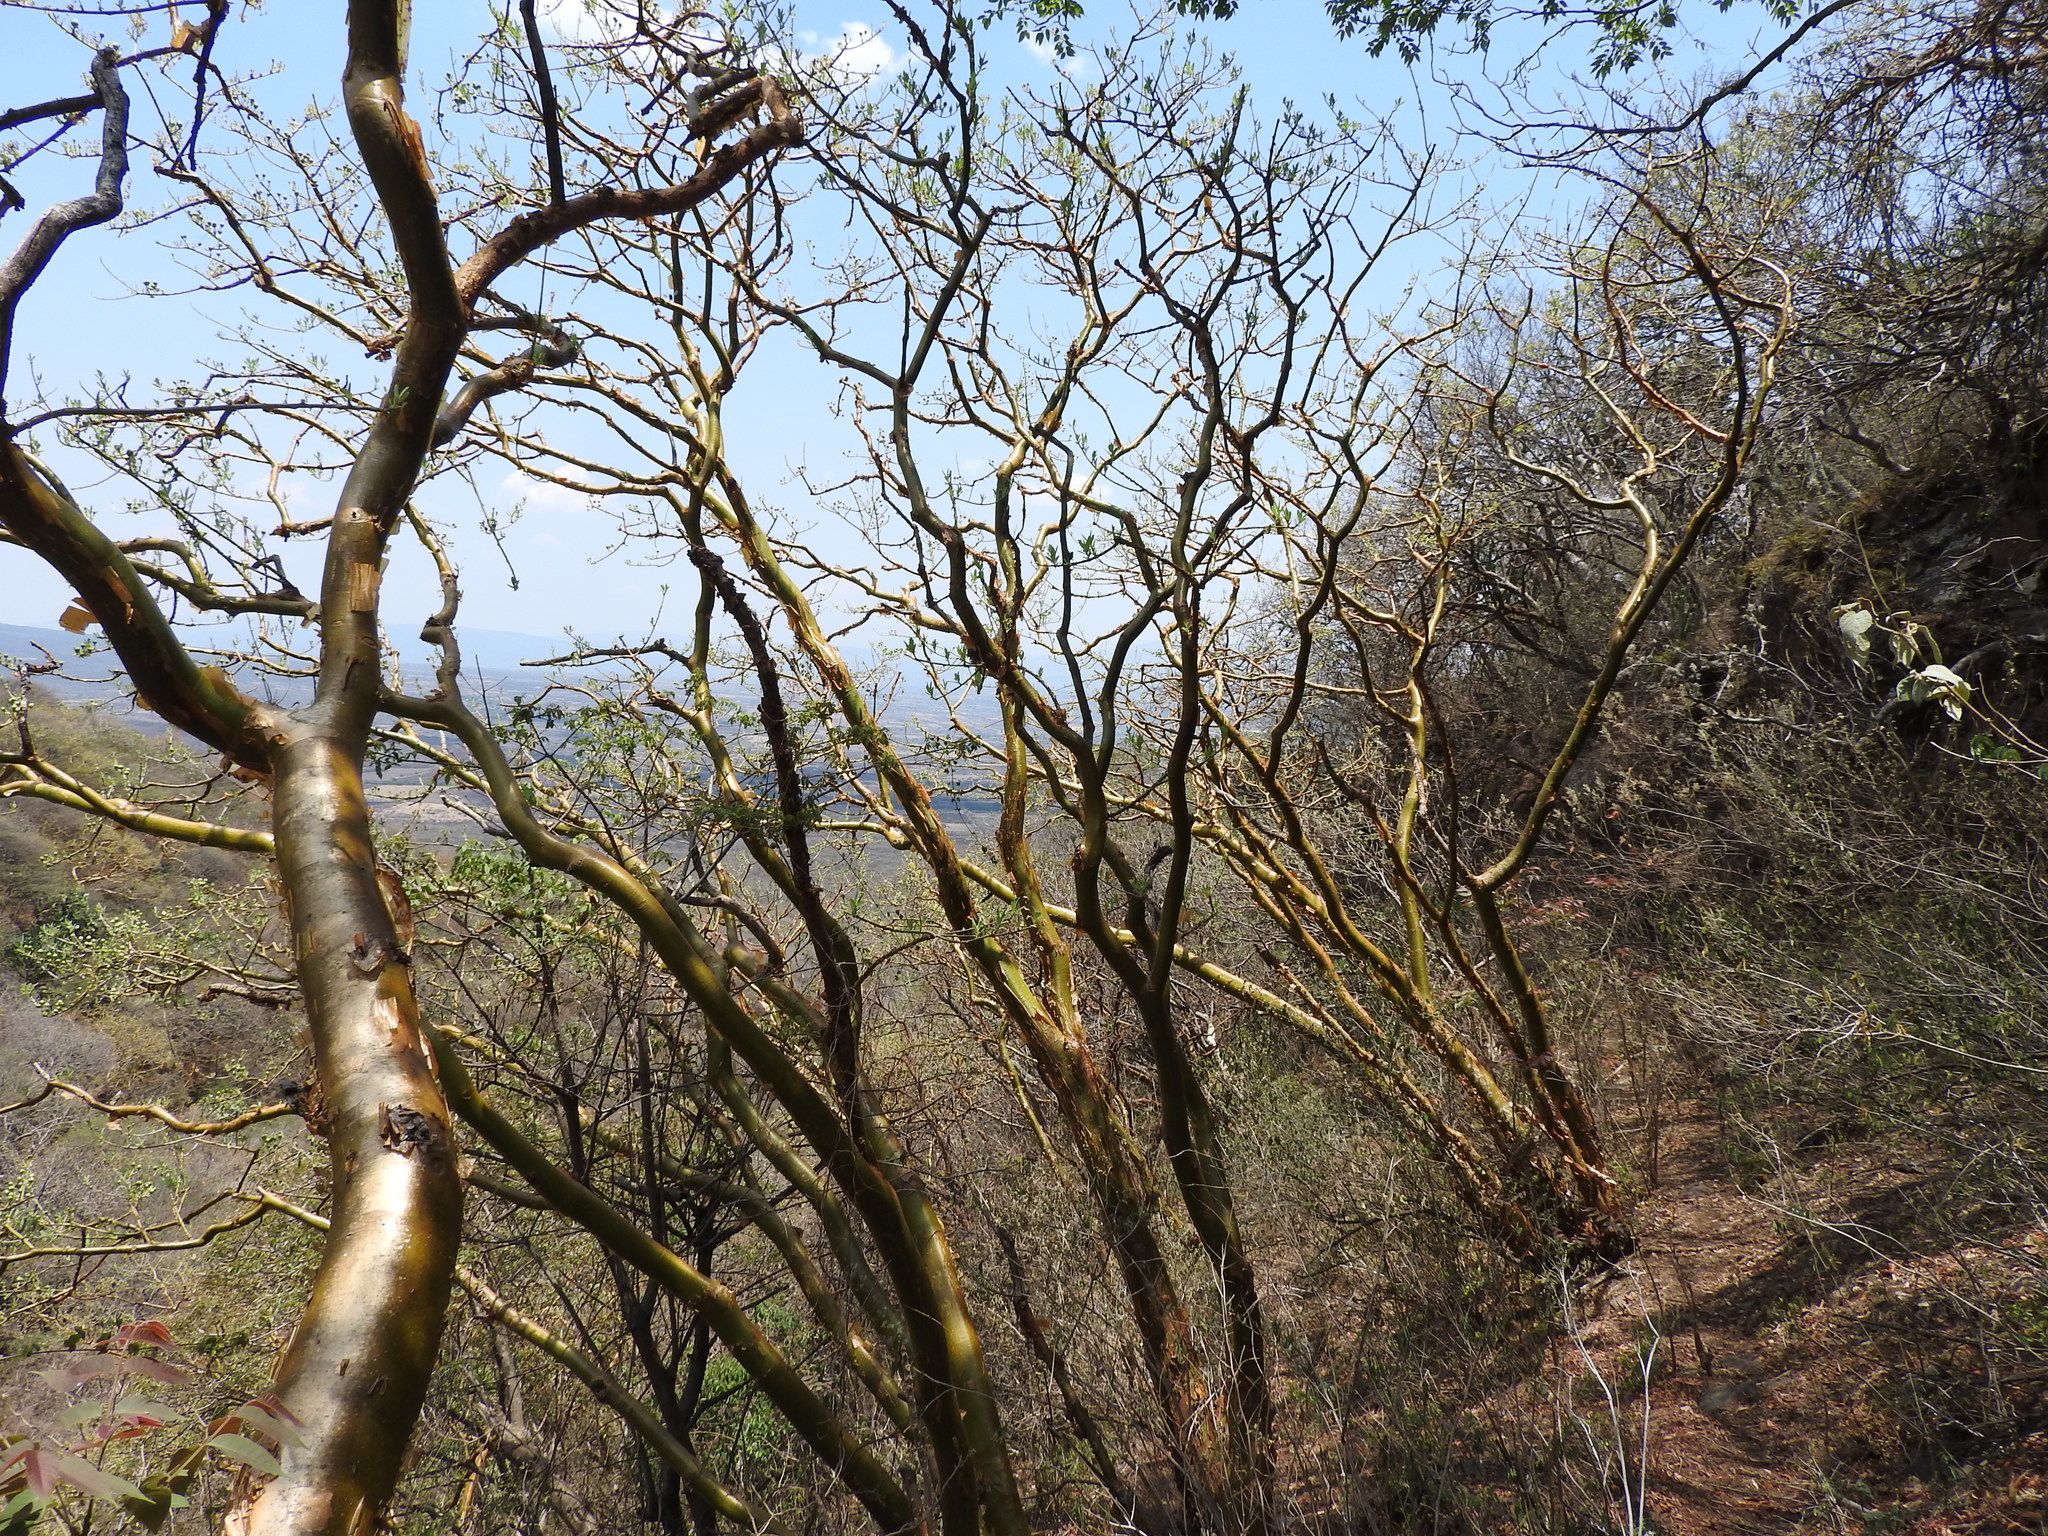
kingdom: Plantae
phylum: Tracheophyta
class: Magnoliopsida
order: Malpighiales
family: Euphorbiaceae
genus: Euphorbia
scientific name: Euphorbia tanquahuete
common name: Leche maria
